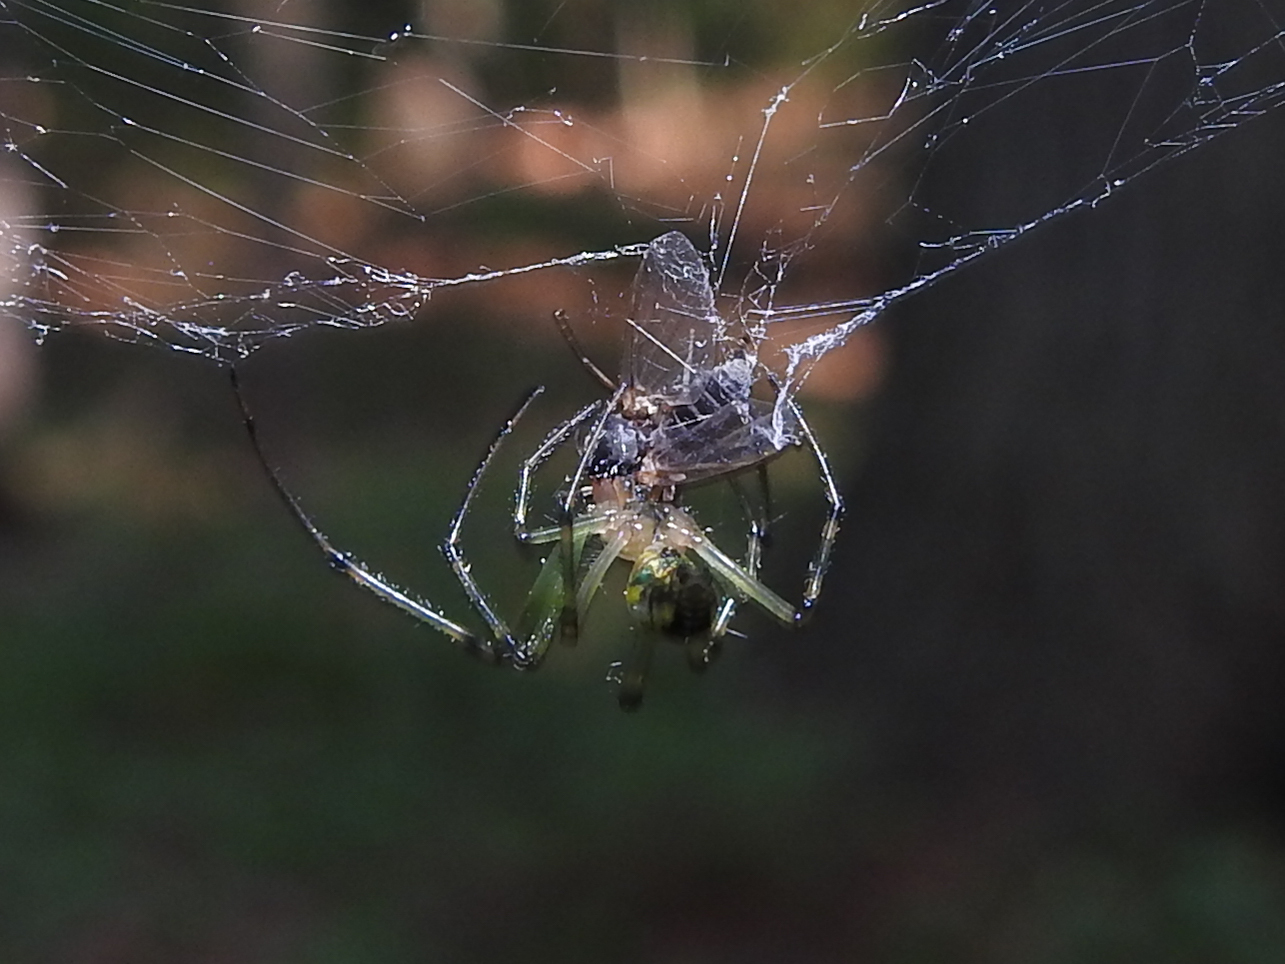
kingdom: Animalia
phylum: Arthropoda
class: Arachnida
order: Araneae
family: Tetragnathidae
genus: Leucauge
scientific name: Leucauge venusta
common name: Longjawed orb weavers
